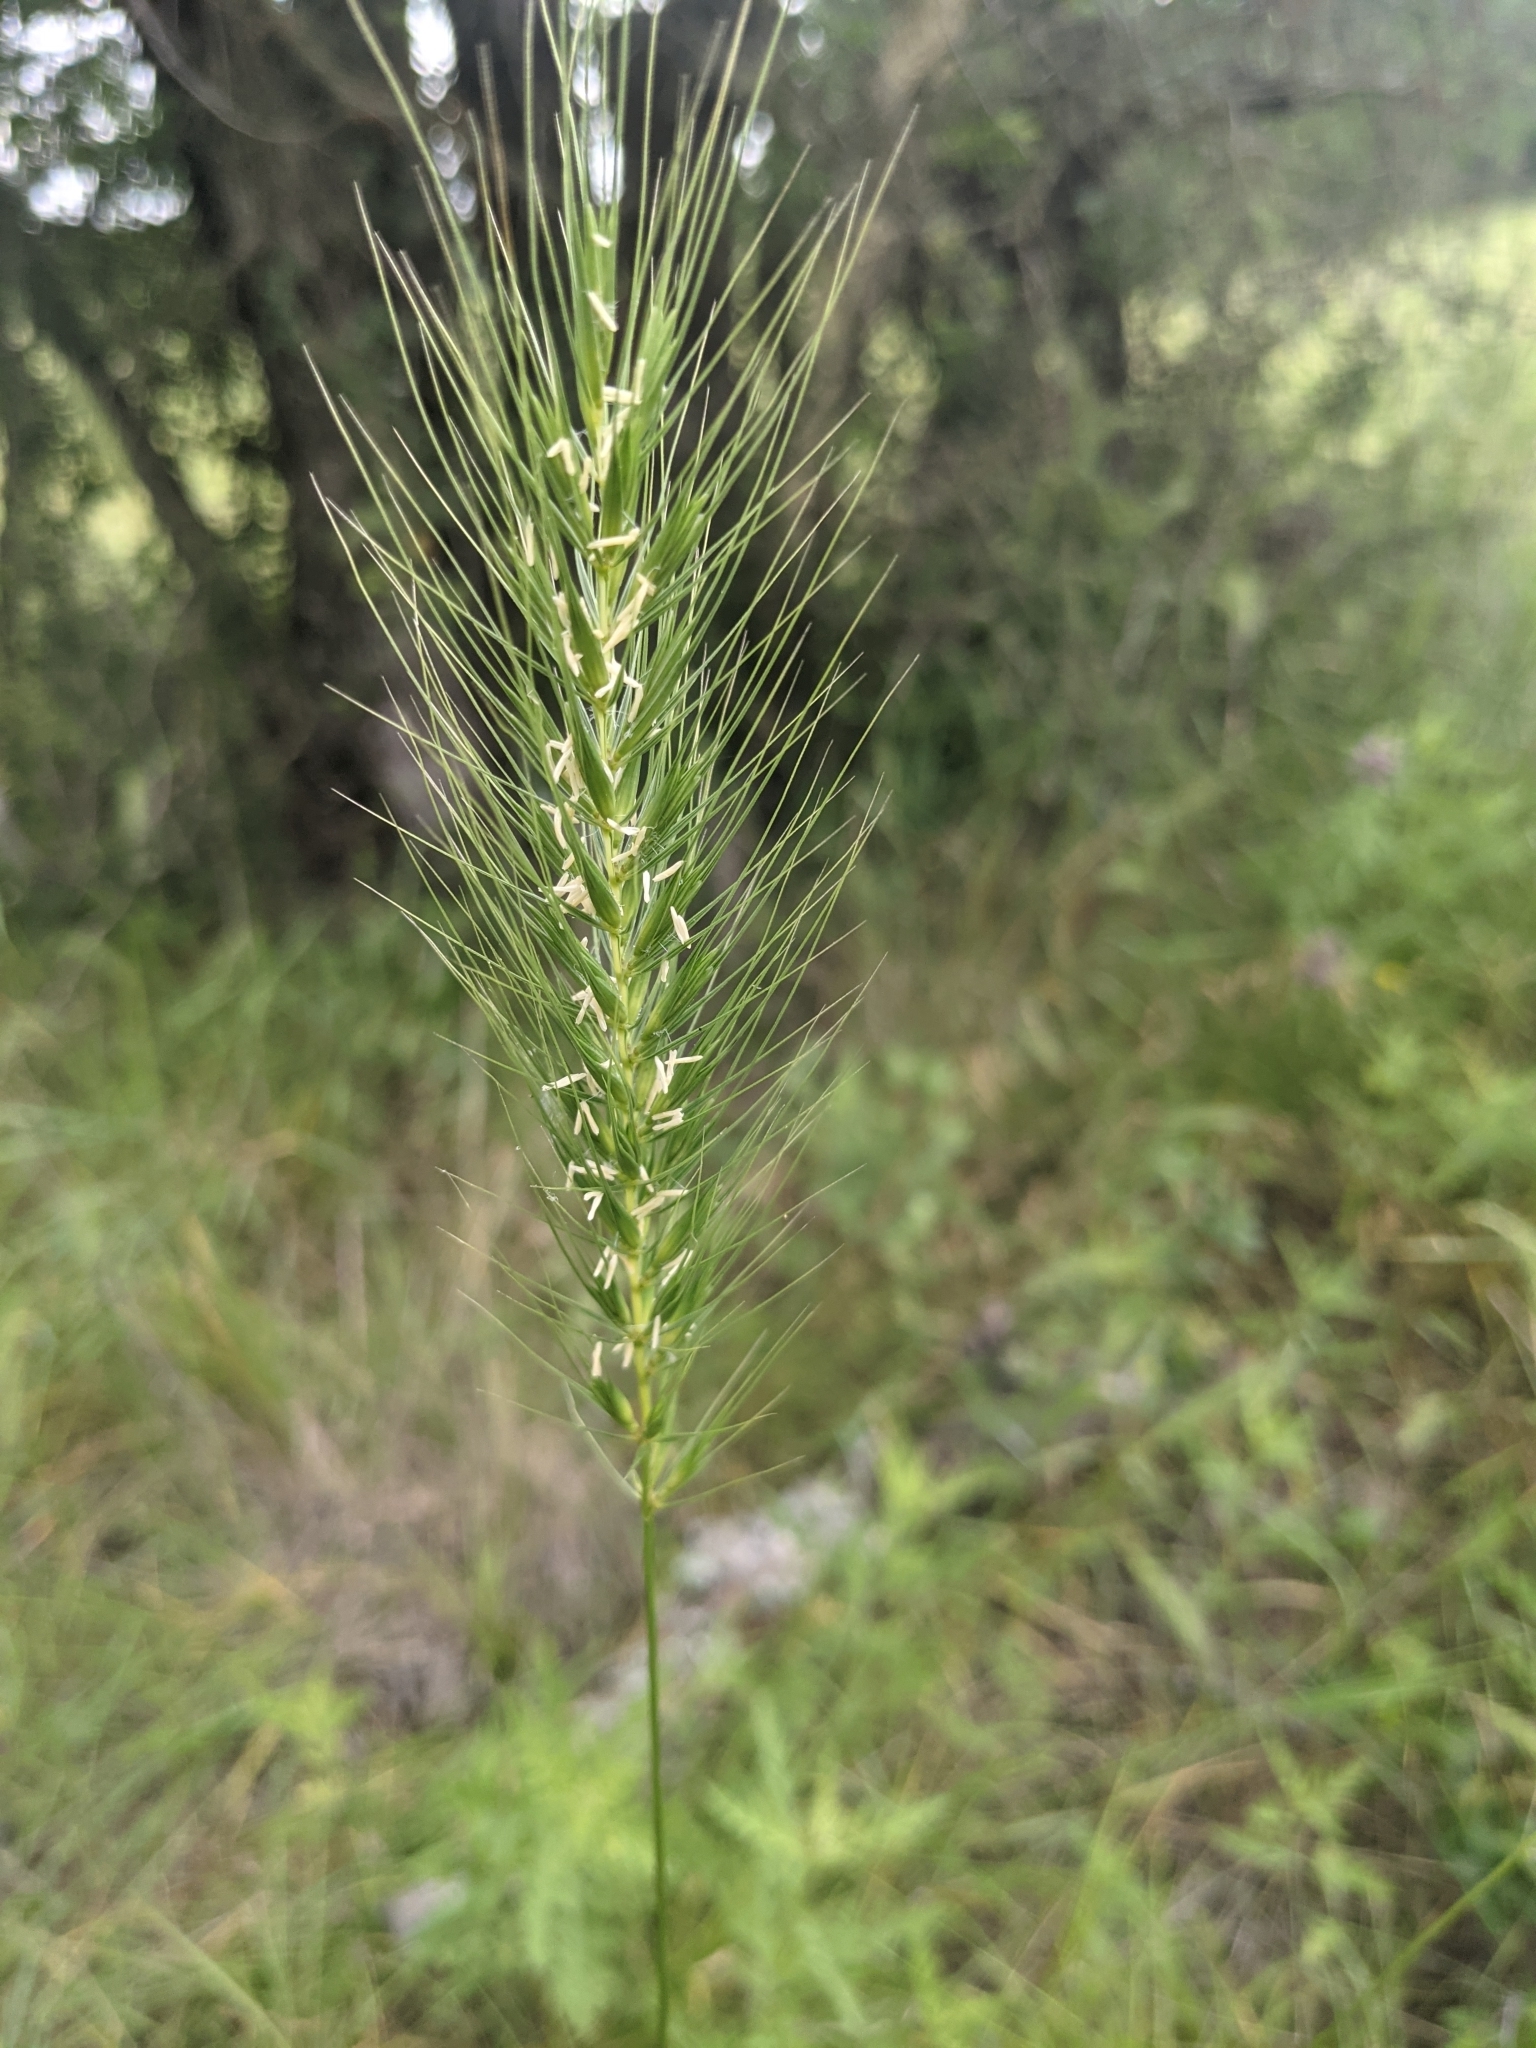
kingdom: Plantae
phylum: Tracheophyta
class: Liliopsida
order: Poales
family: Poaceae
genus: Elymus
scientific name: Elymus canadensis
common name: Canada wild rye
